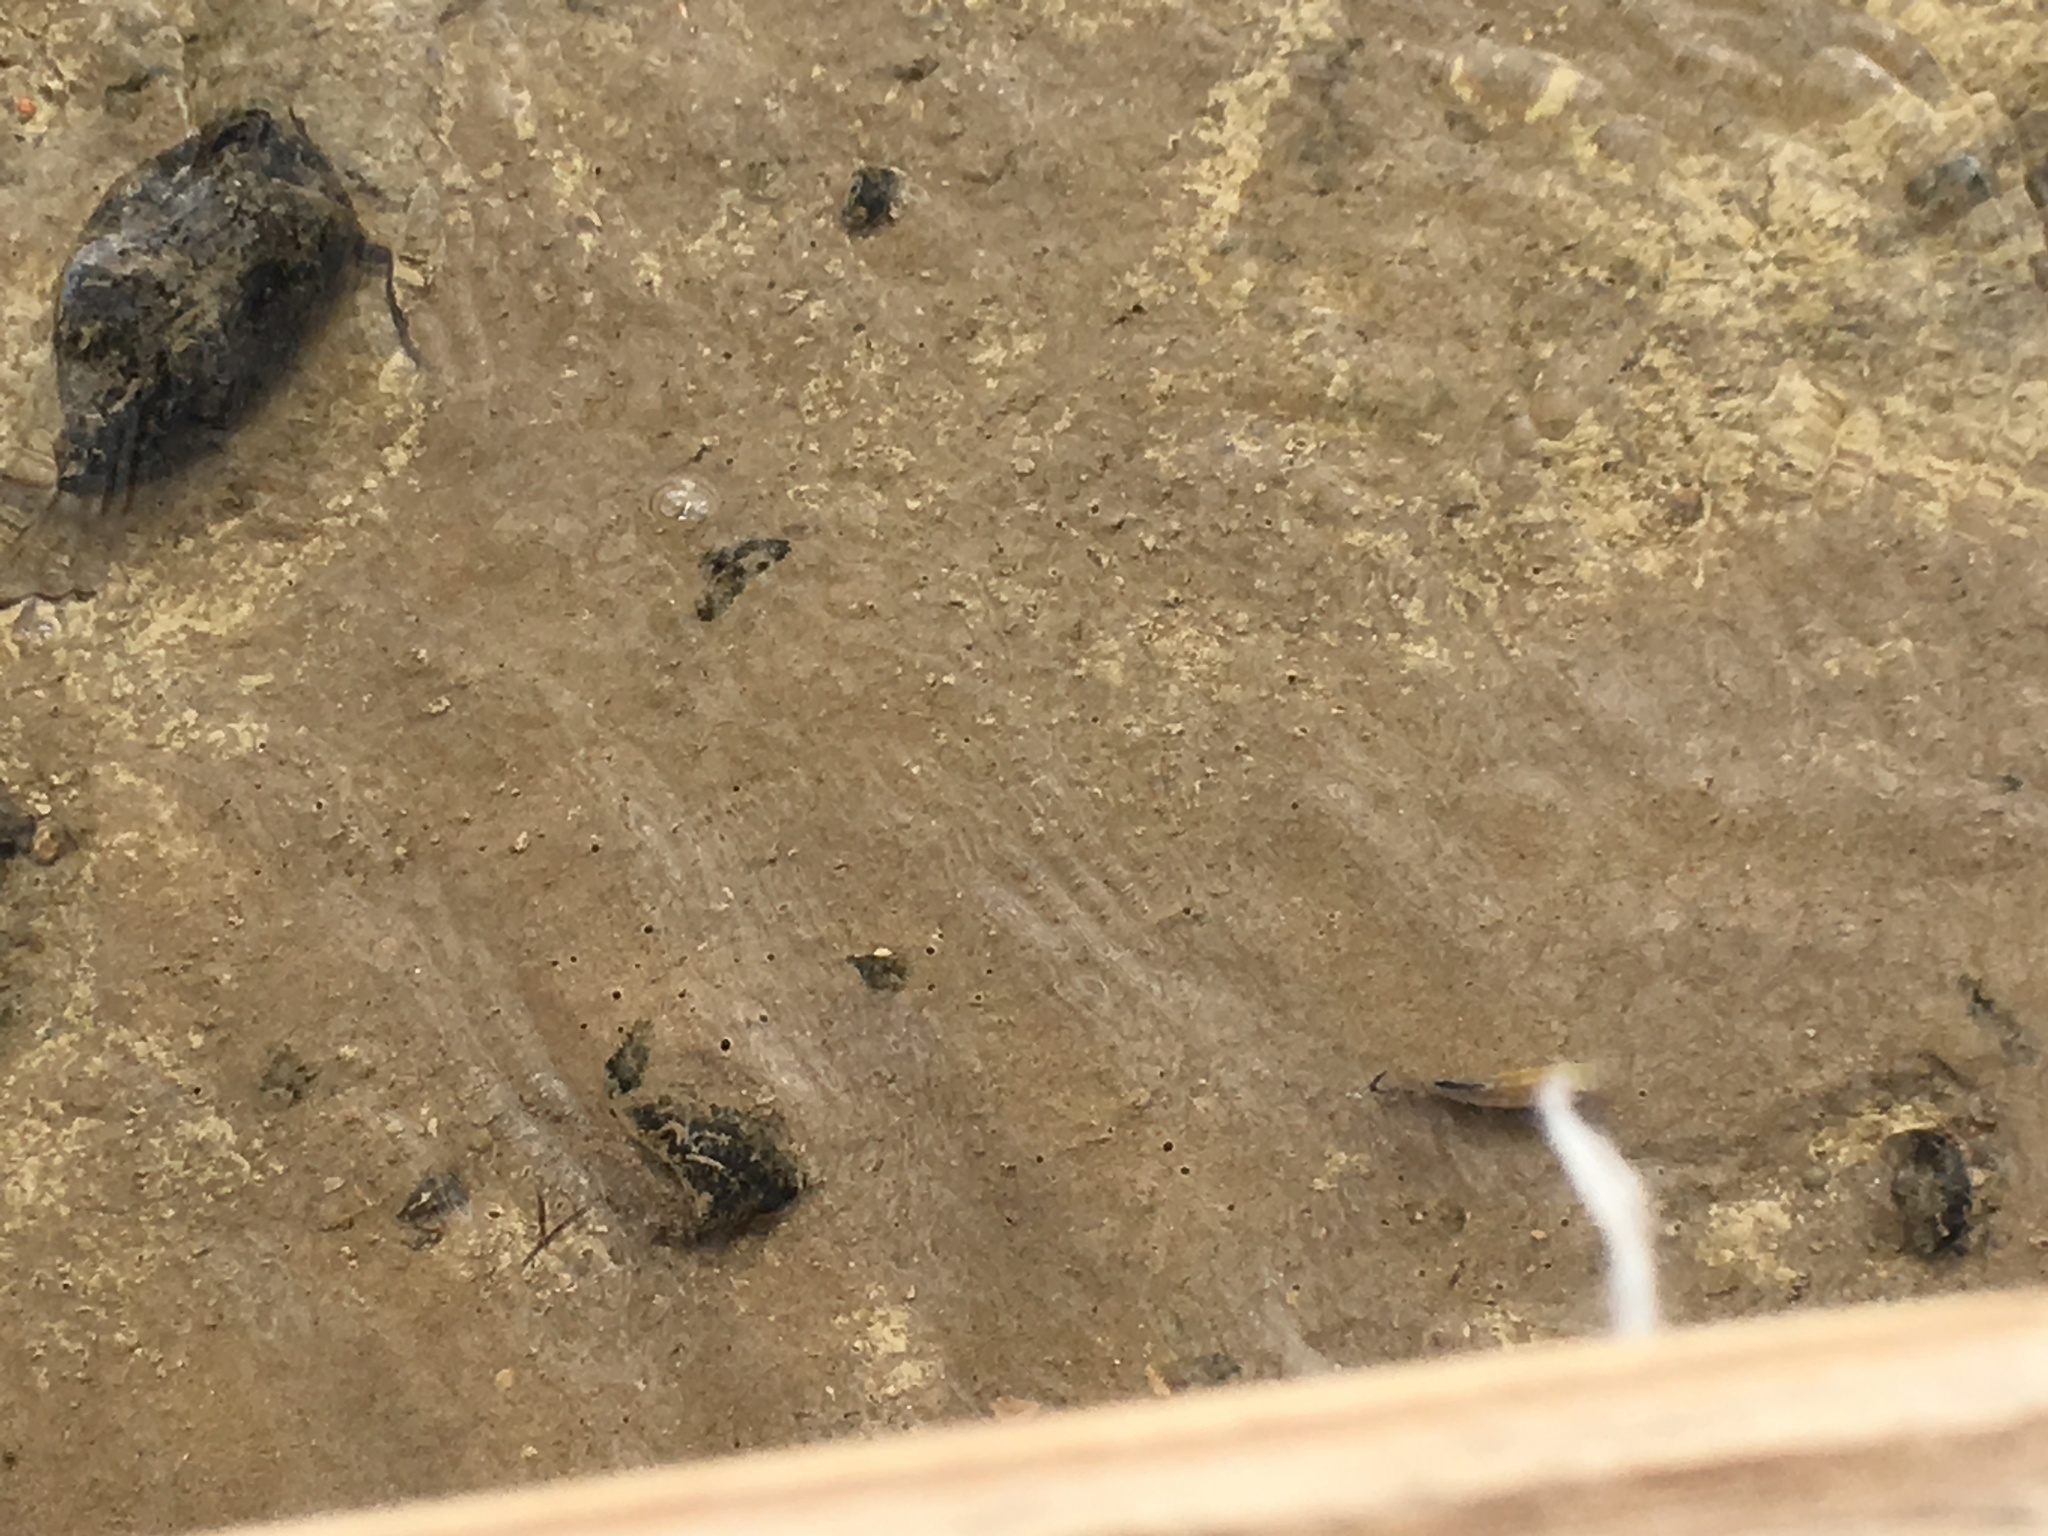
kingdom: Animalia
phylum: Chordata
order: Cyprinodontiformes
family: Cyprinodontidae
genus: Cyprinodon
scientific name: Cyprinodon salinus
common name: Cottonball marsh pupfish
